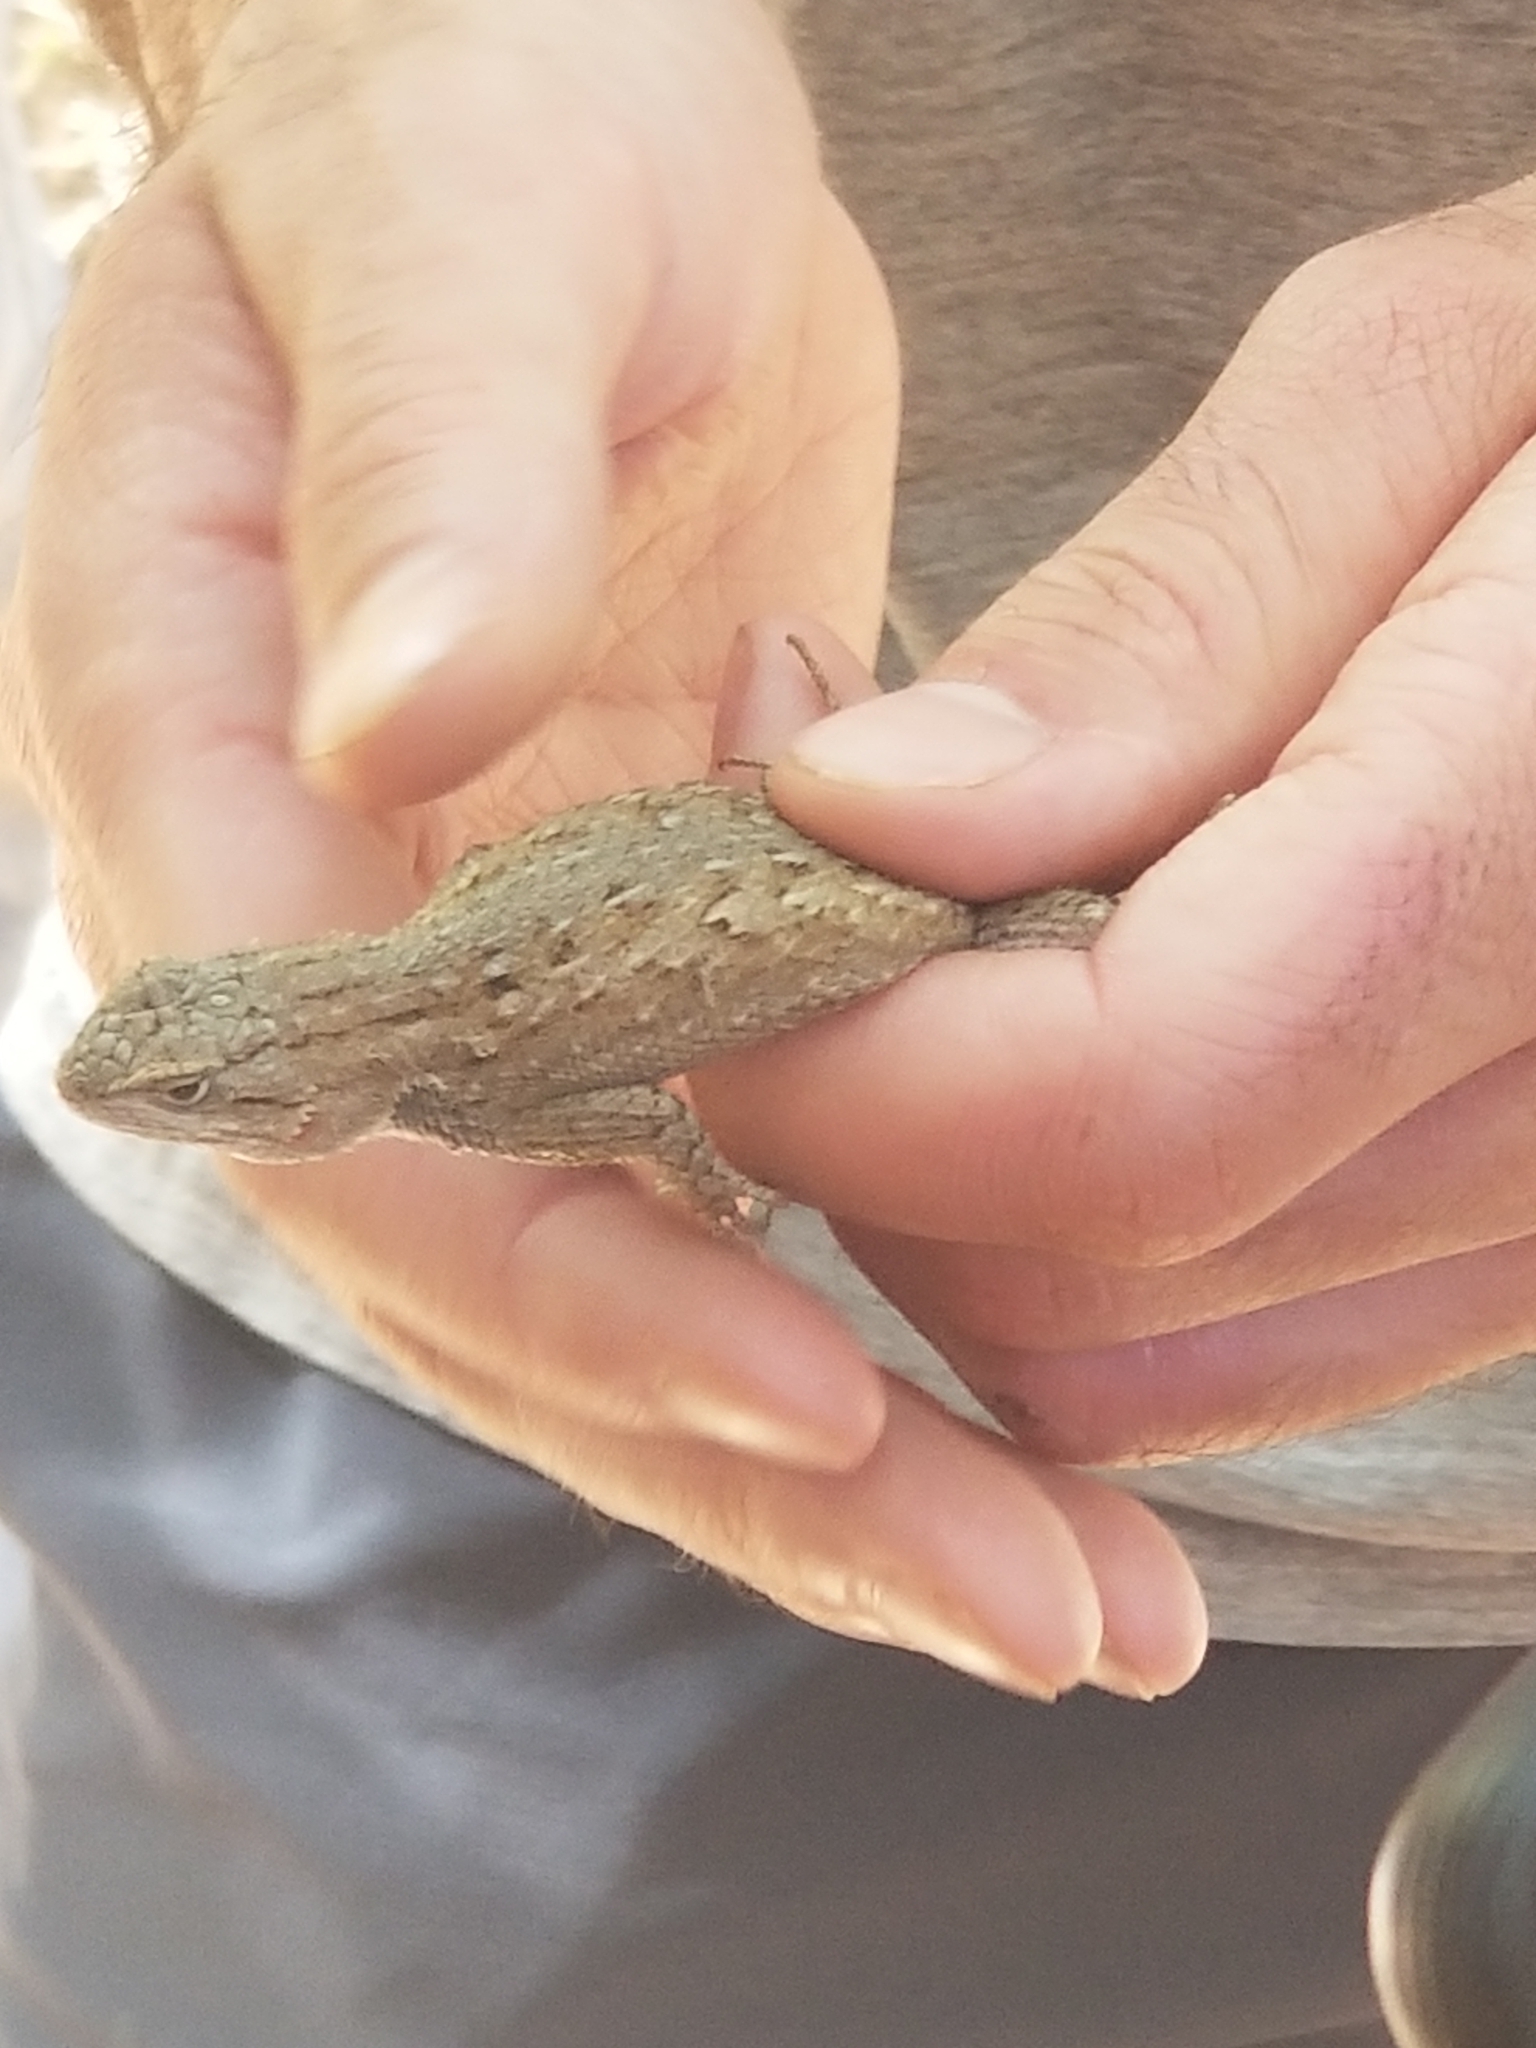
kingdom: Animalia
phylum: Chordata
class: Squamata
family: Phrynosomatidae
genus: Sceloporus
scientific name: Sceloporus tristichus
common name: Plateau fence lizard
